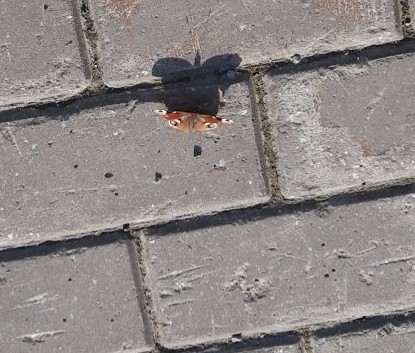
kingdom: Animalia
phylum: Arthropoda
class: Insecta
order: Lepidoptera
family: Nymphalidae
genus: Aglais
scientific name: Aglais io
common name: Peacock
